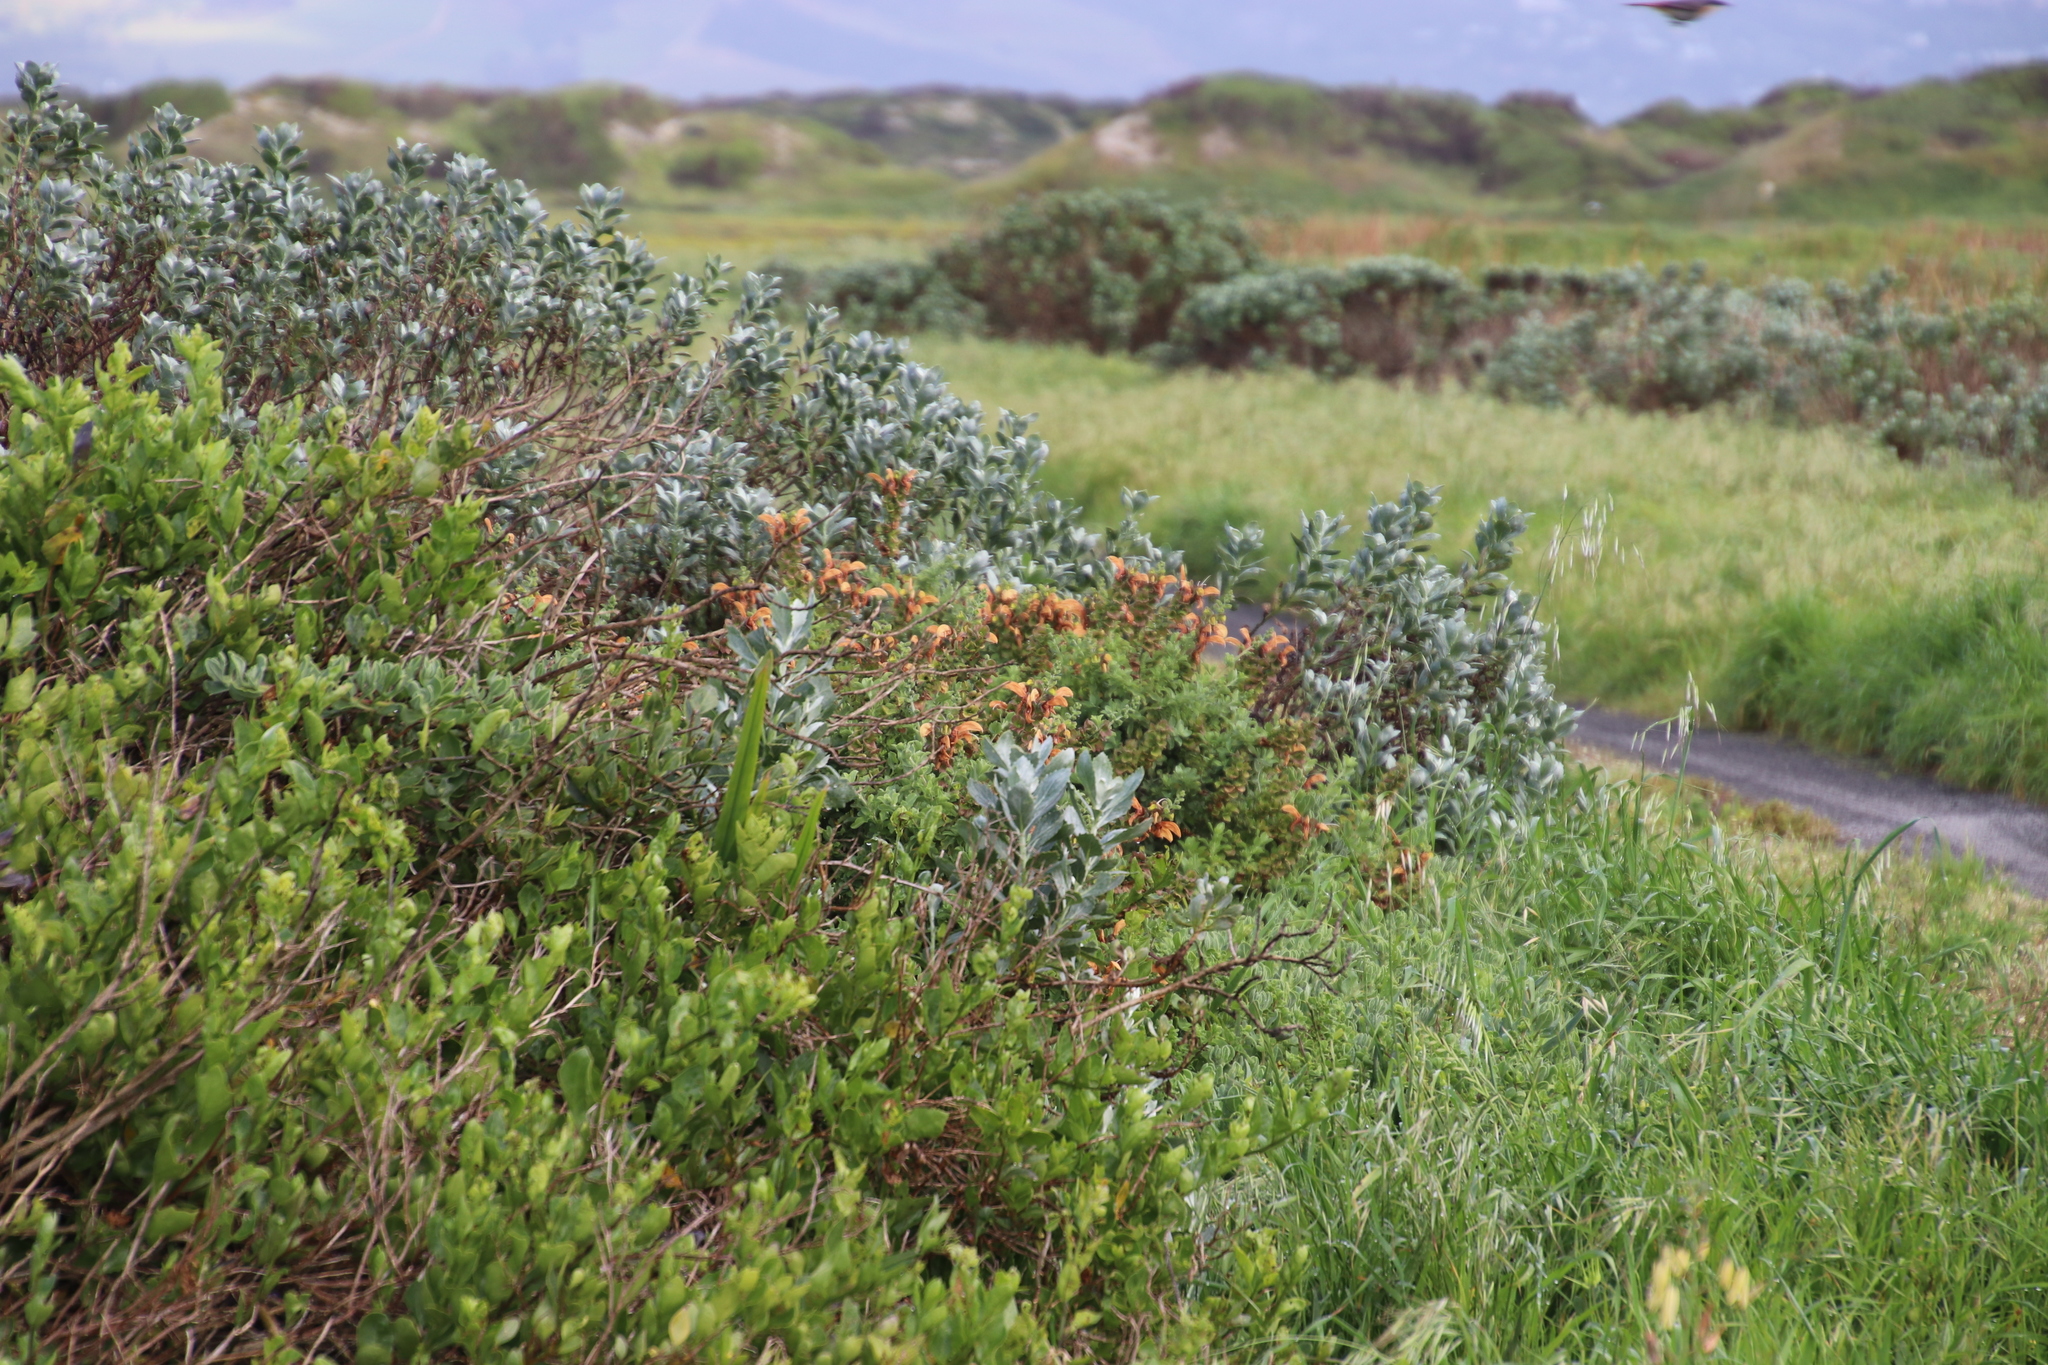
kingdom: Plantae
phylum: Tracheophyta
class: Magnoliopsida
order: Lamiales
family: Lamiaceae
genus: Salvia
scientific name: Salvia aurea
